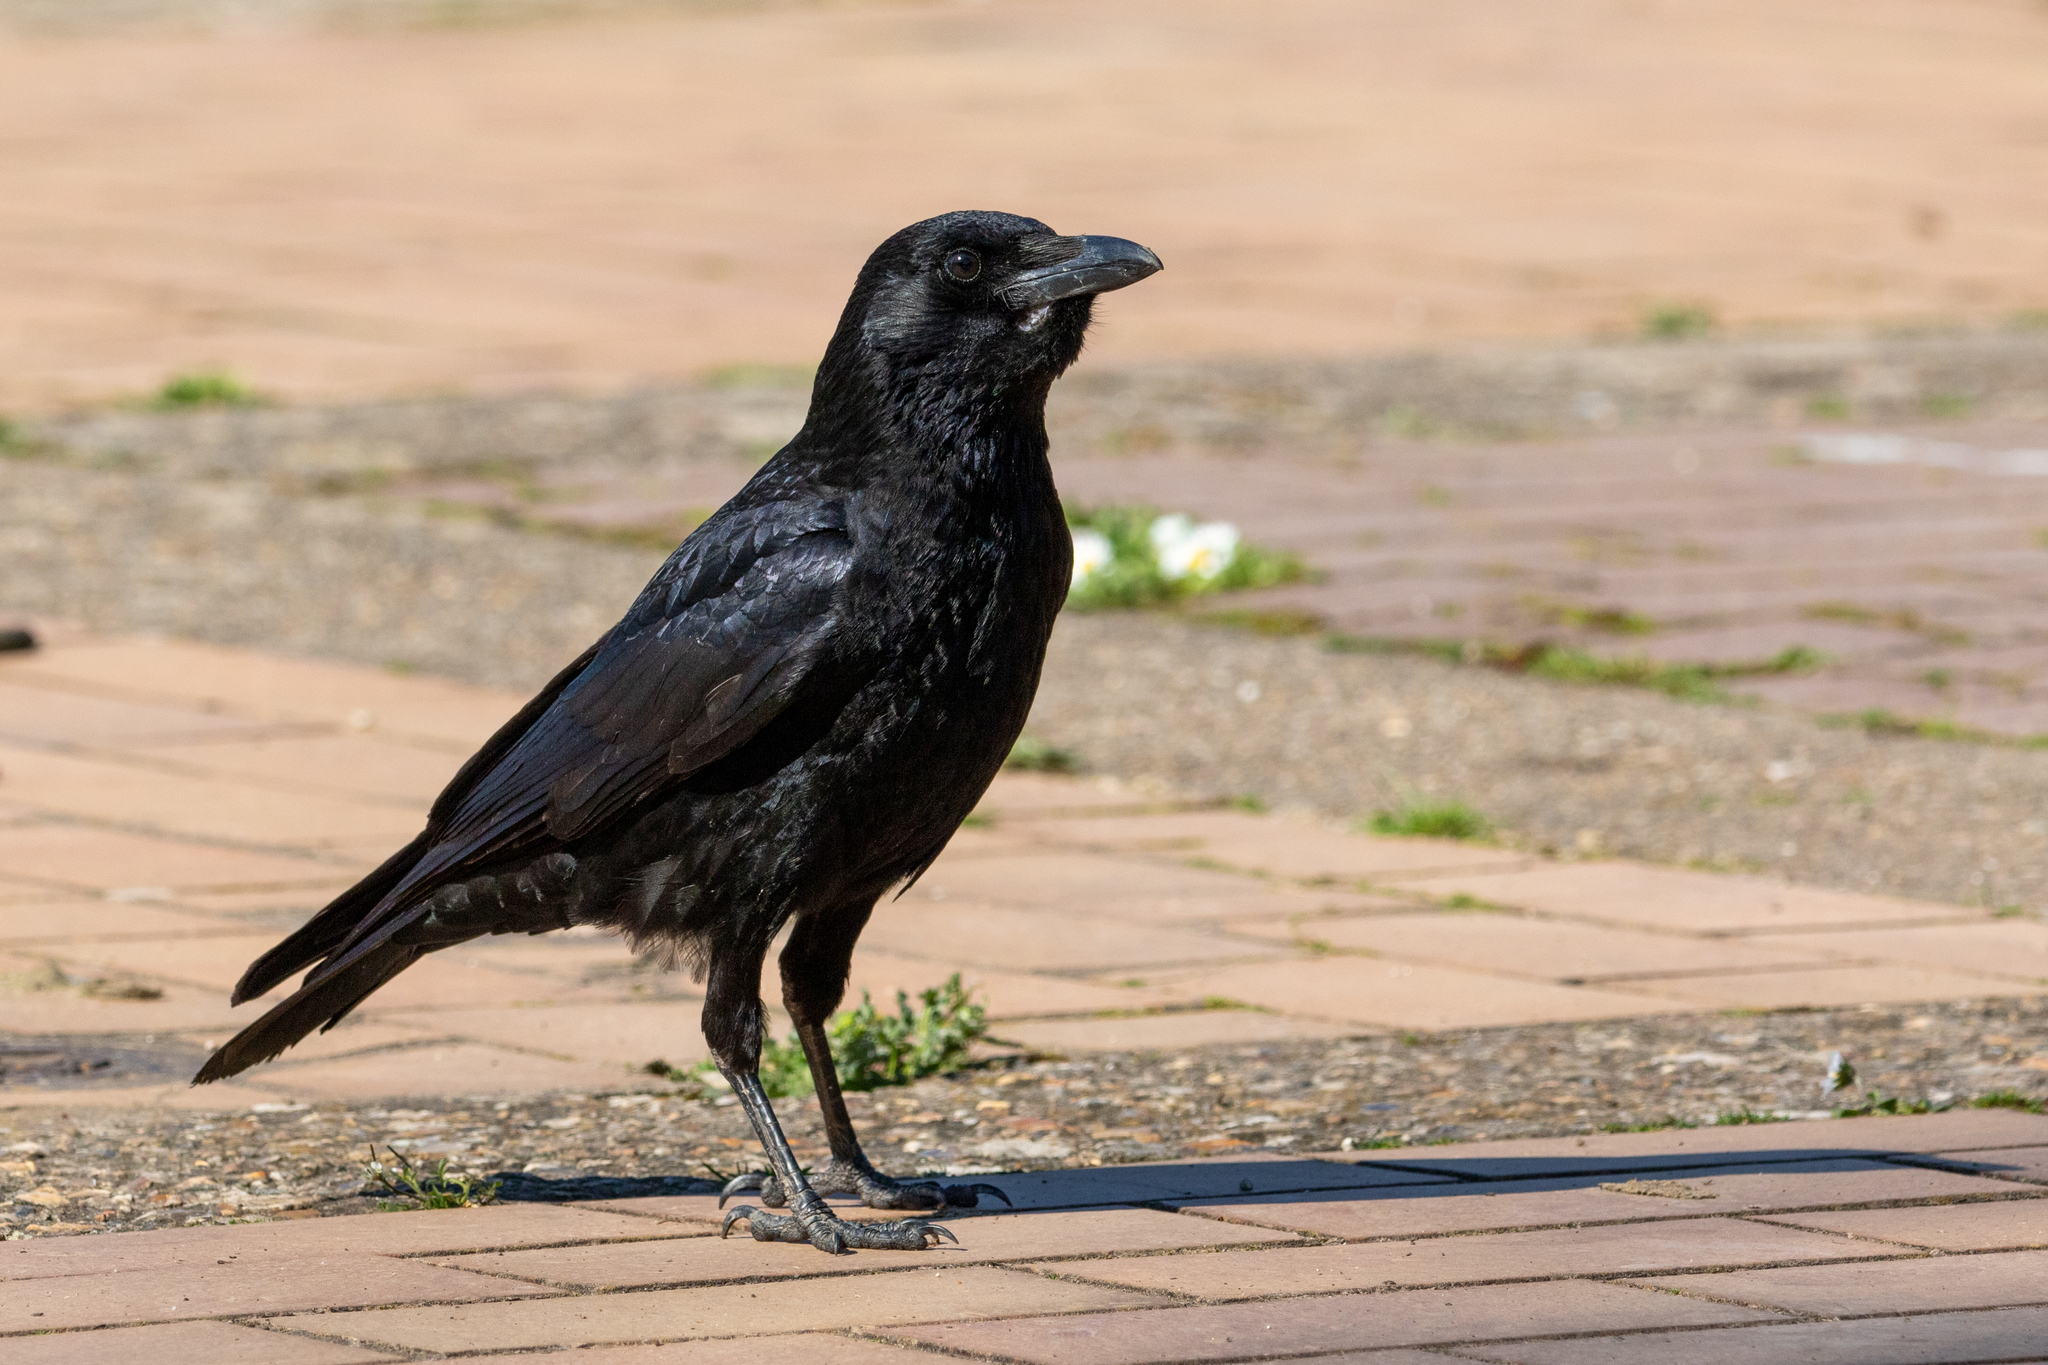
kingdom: Animalia
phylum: Chordata
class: Aves
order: Passeriformes
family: Corvidae
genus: Corvus
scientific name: Corvus corone
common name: Carrion crow
